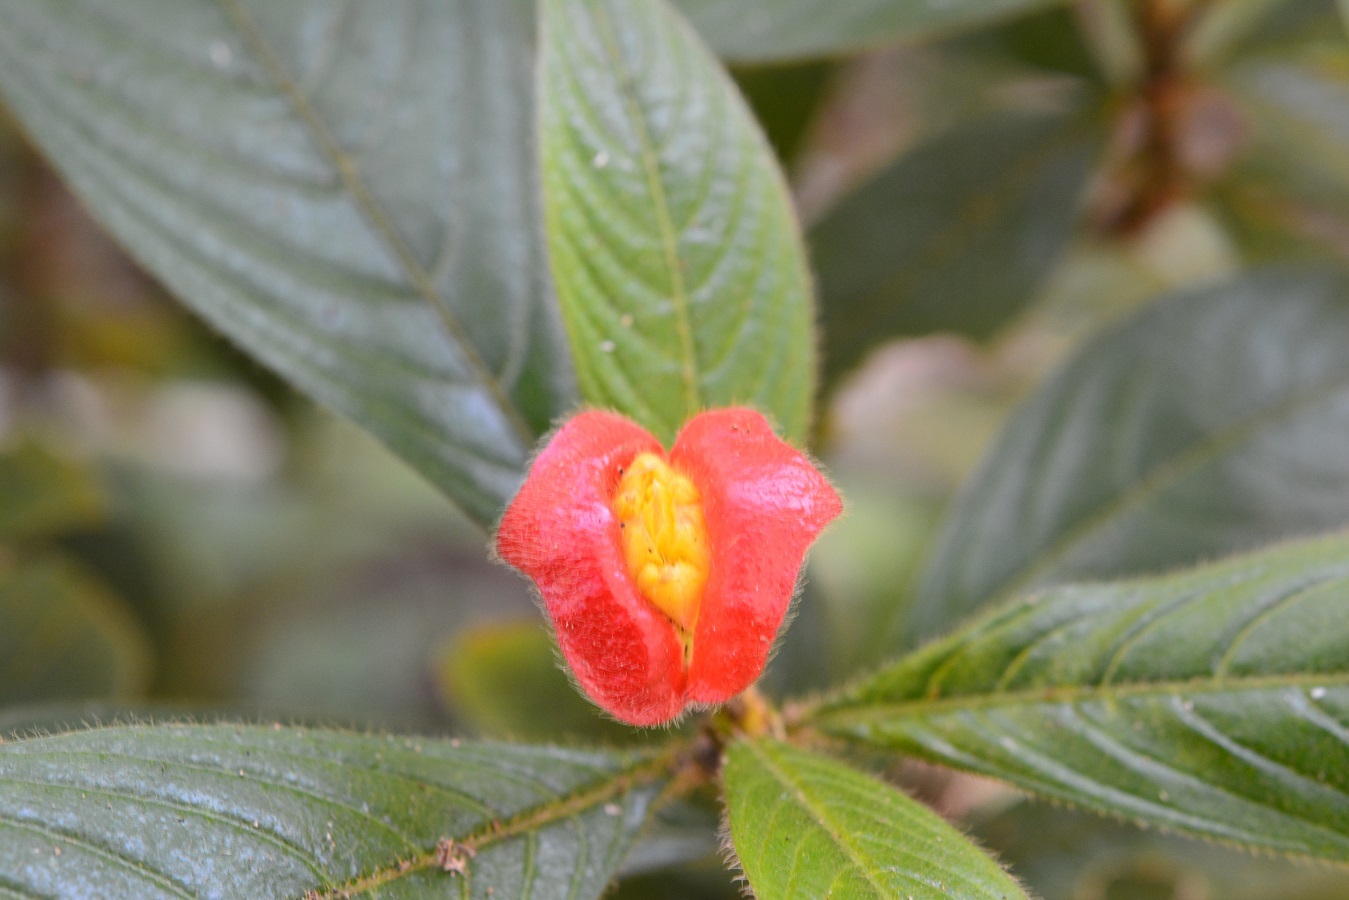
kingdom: Plantae
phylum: Tracheophyta
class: Magnoliopsida
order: Gentianales
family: Rubiaceae
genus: Palicourea
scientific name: Palicourea tomentosa
